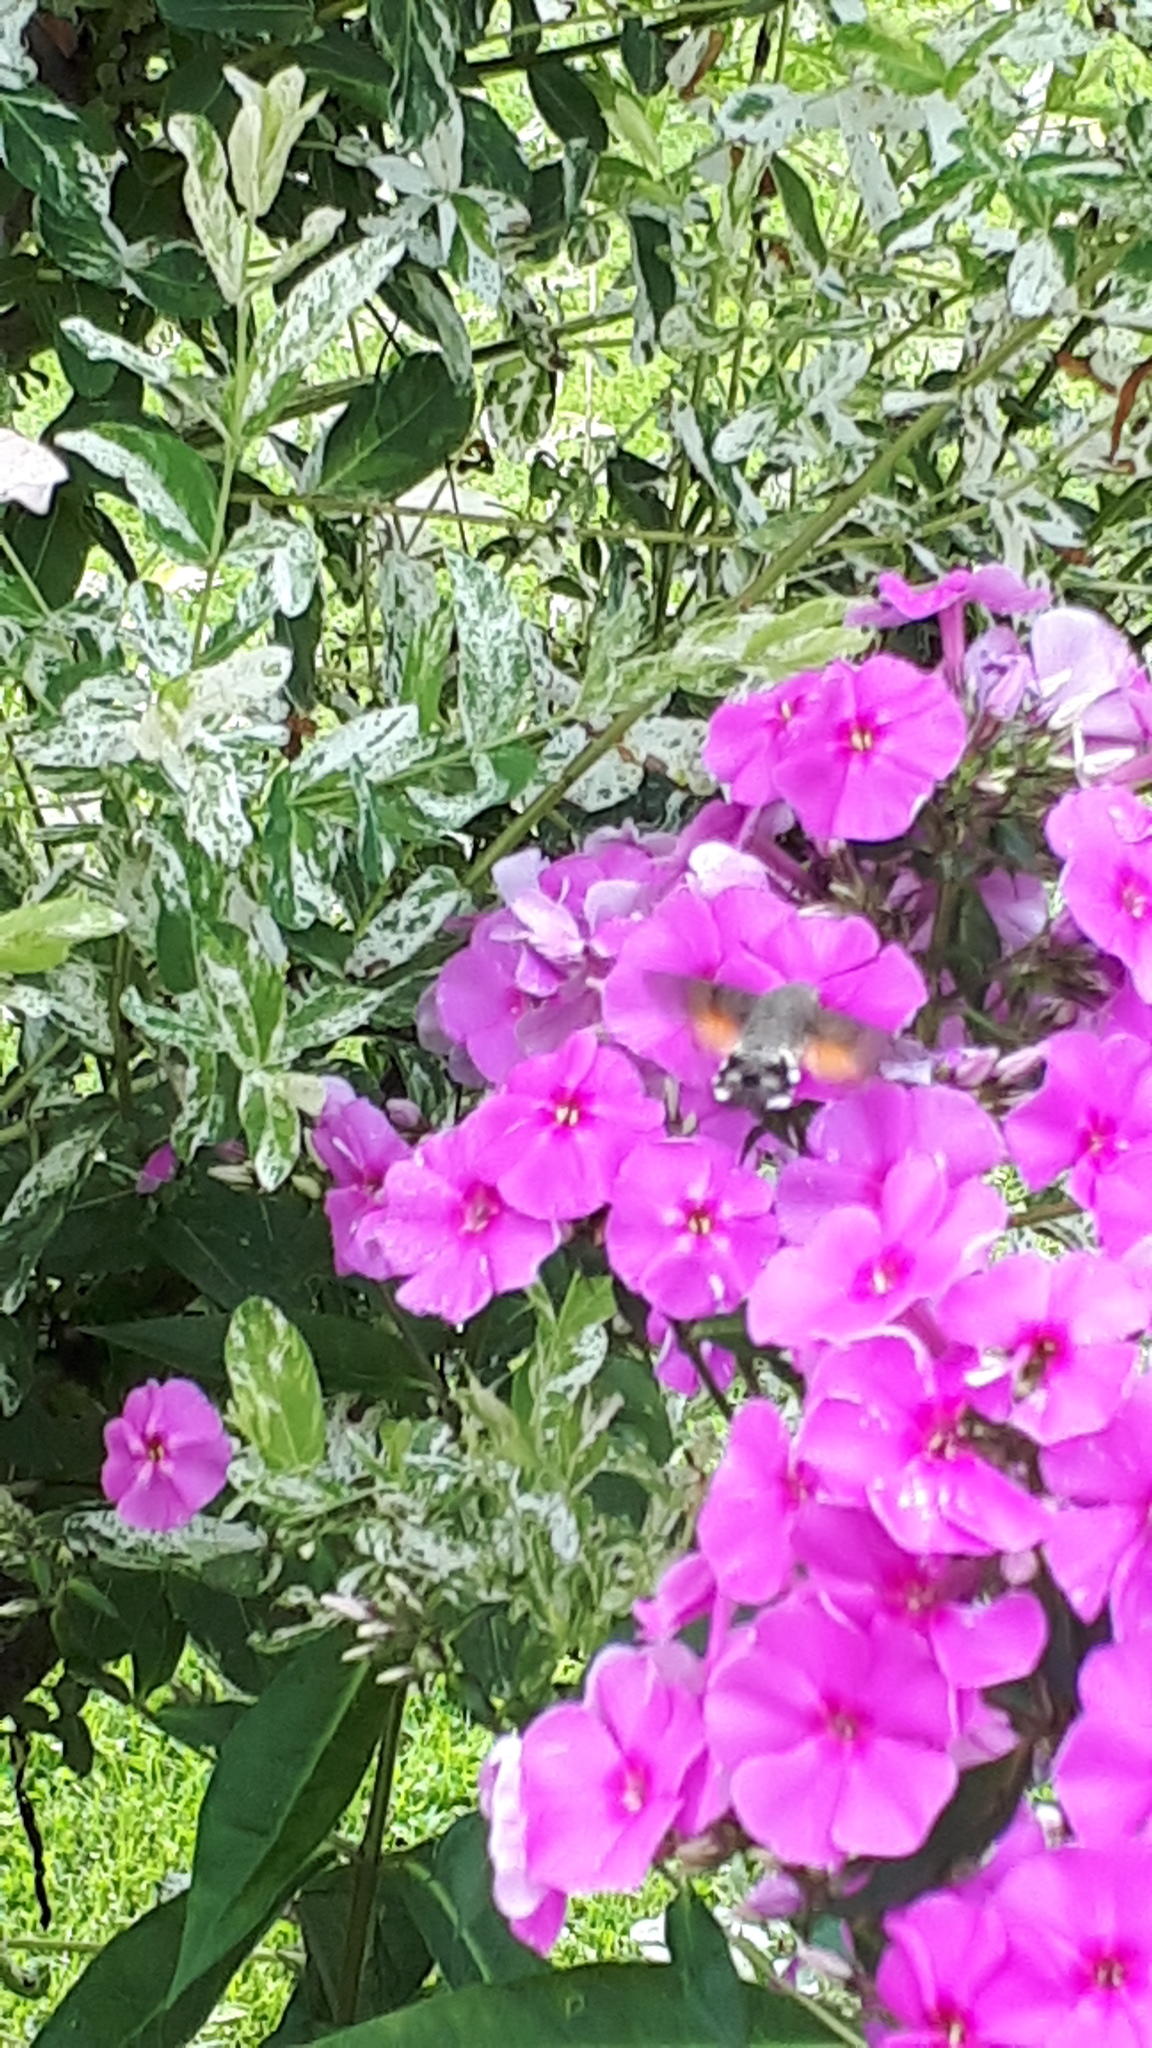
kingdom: Animalia
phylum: Arthropoda
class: Insecta
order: Lepidoptera
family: Sphingidae
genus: Macroglossum
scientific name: Macroglossum stellatarum
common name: Humming-bird hawk-moth
